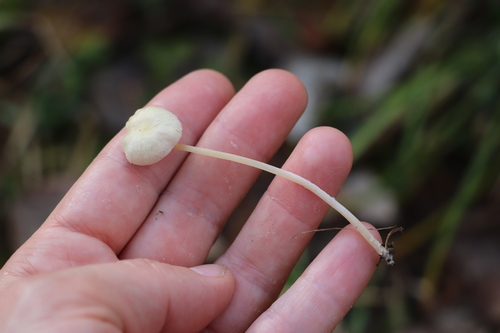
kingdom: Fungi
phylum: Basidiomycota
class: Agaricomycetes
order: Agaricales
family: Entolomataceae
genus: Entoloma
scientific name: Entoloma
